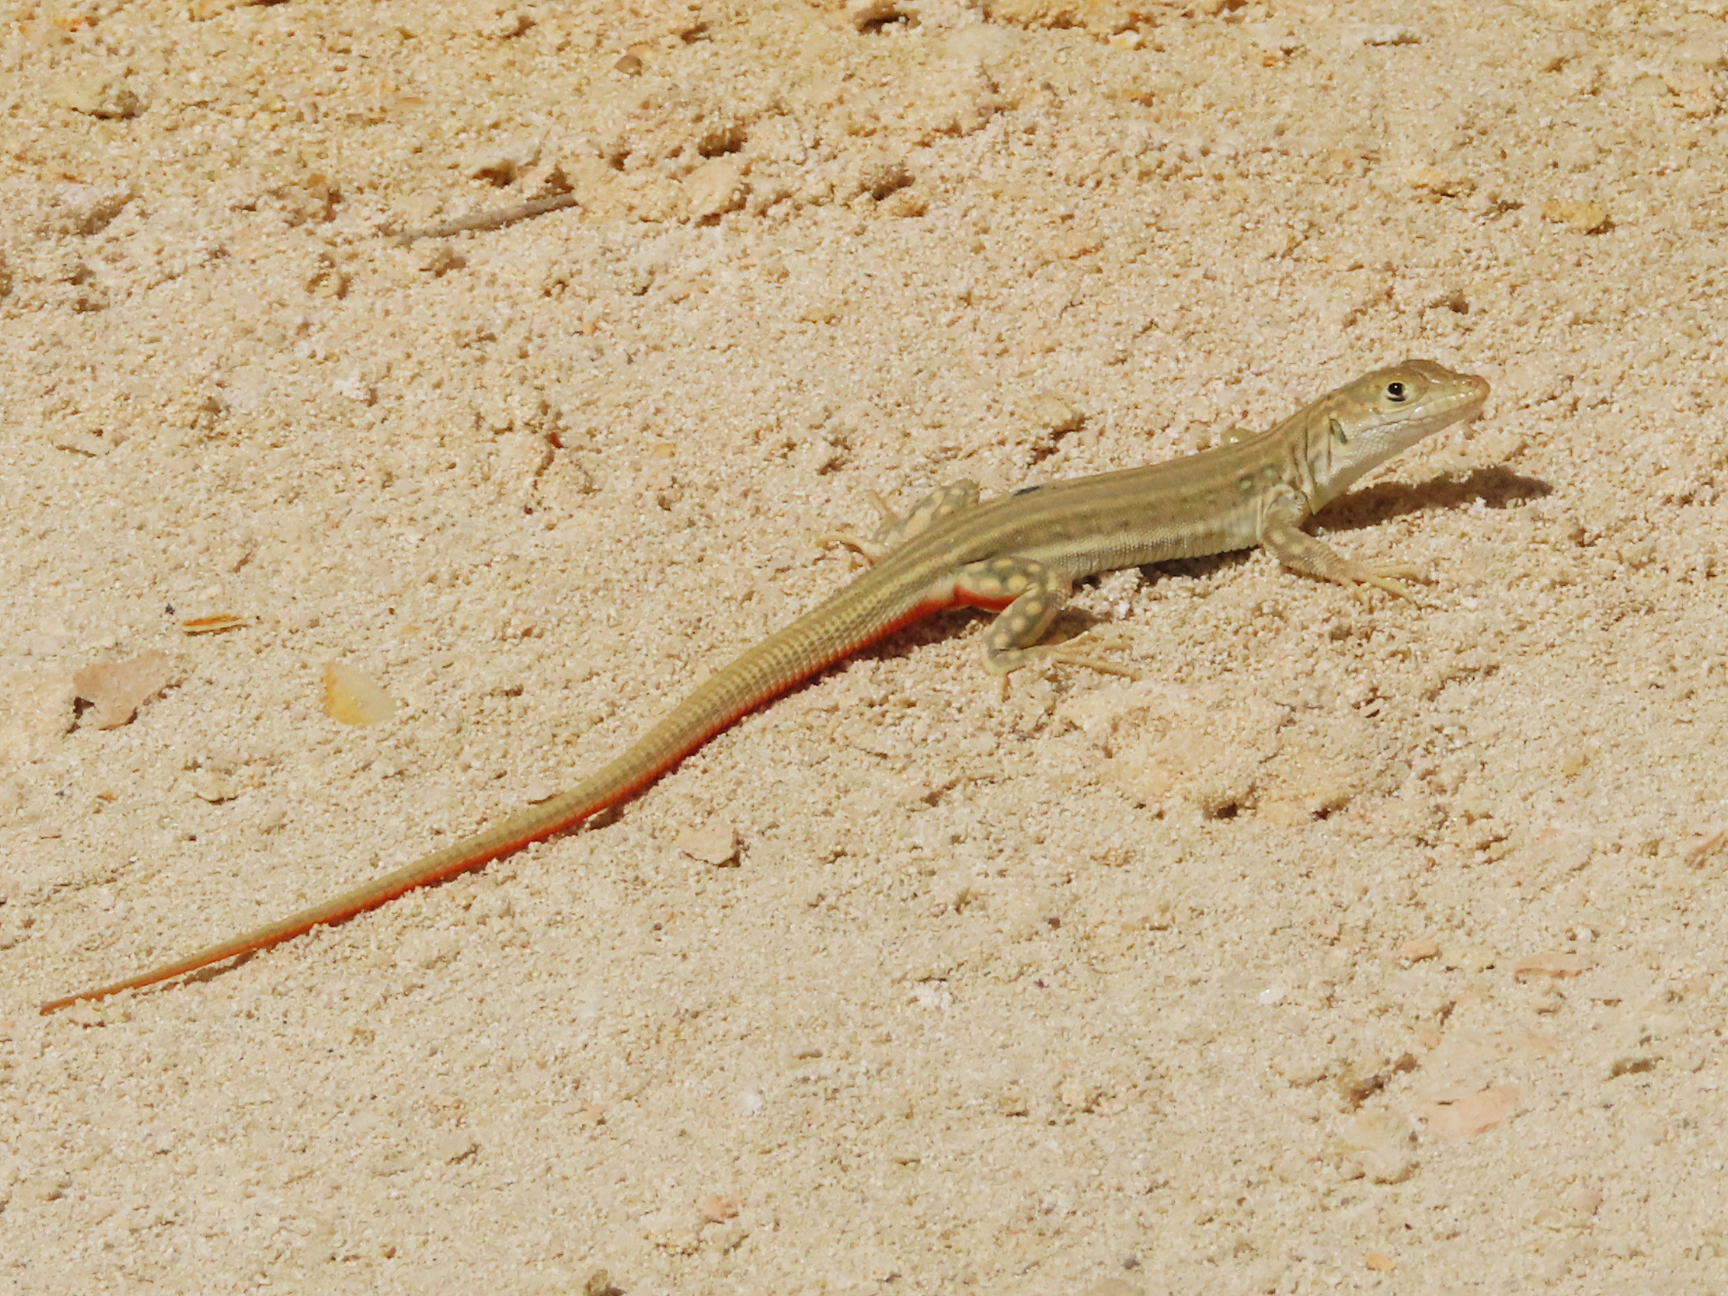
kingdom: Animalia
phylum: Chordata
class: Squamata
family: Lacertidae
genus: Eremias
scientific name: Eremias velox
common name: Central asian racerunner
